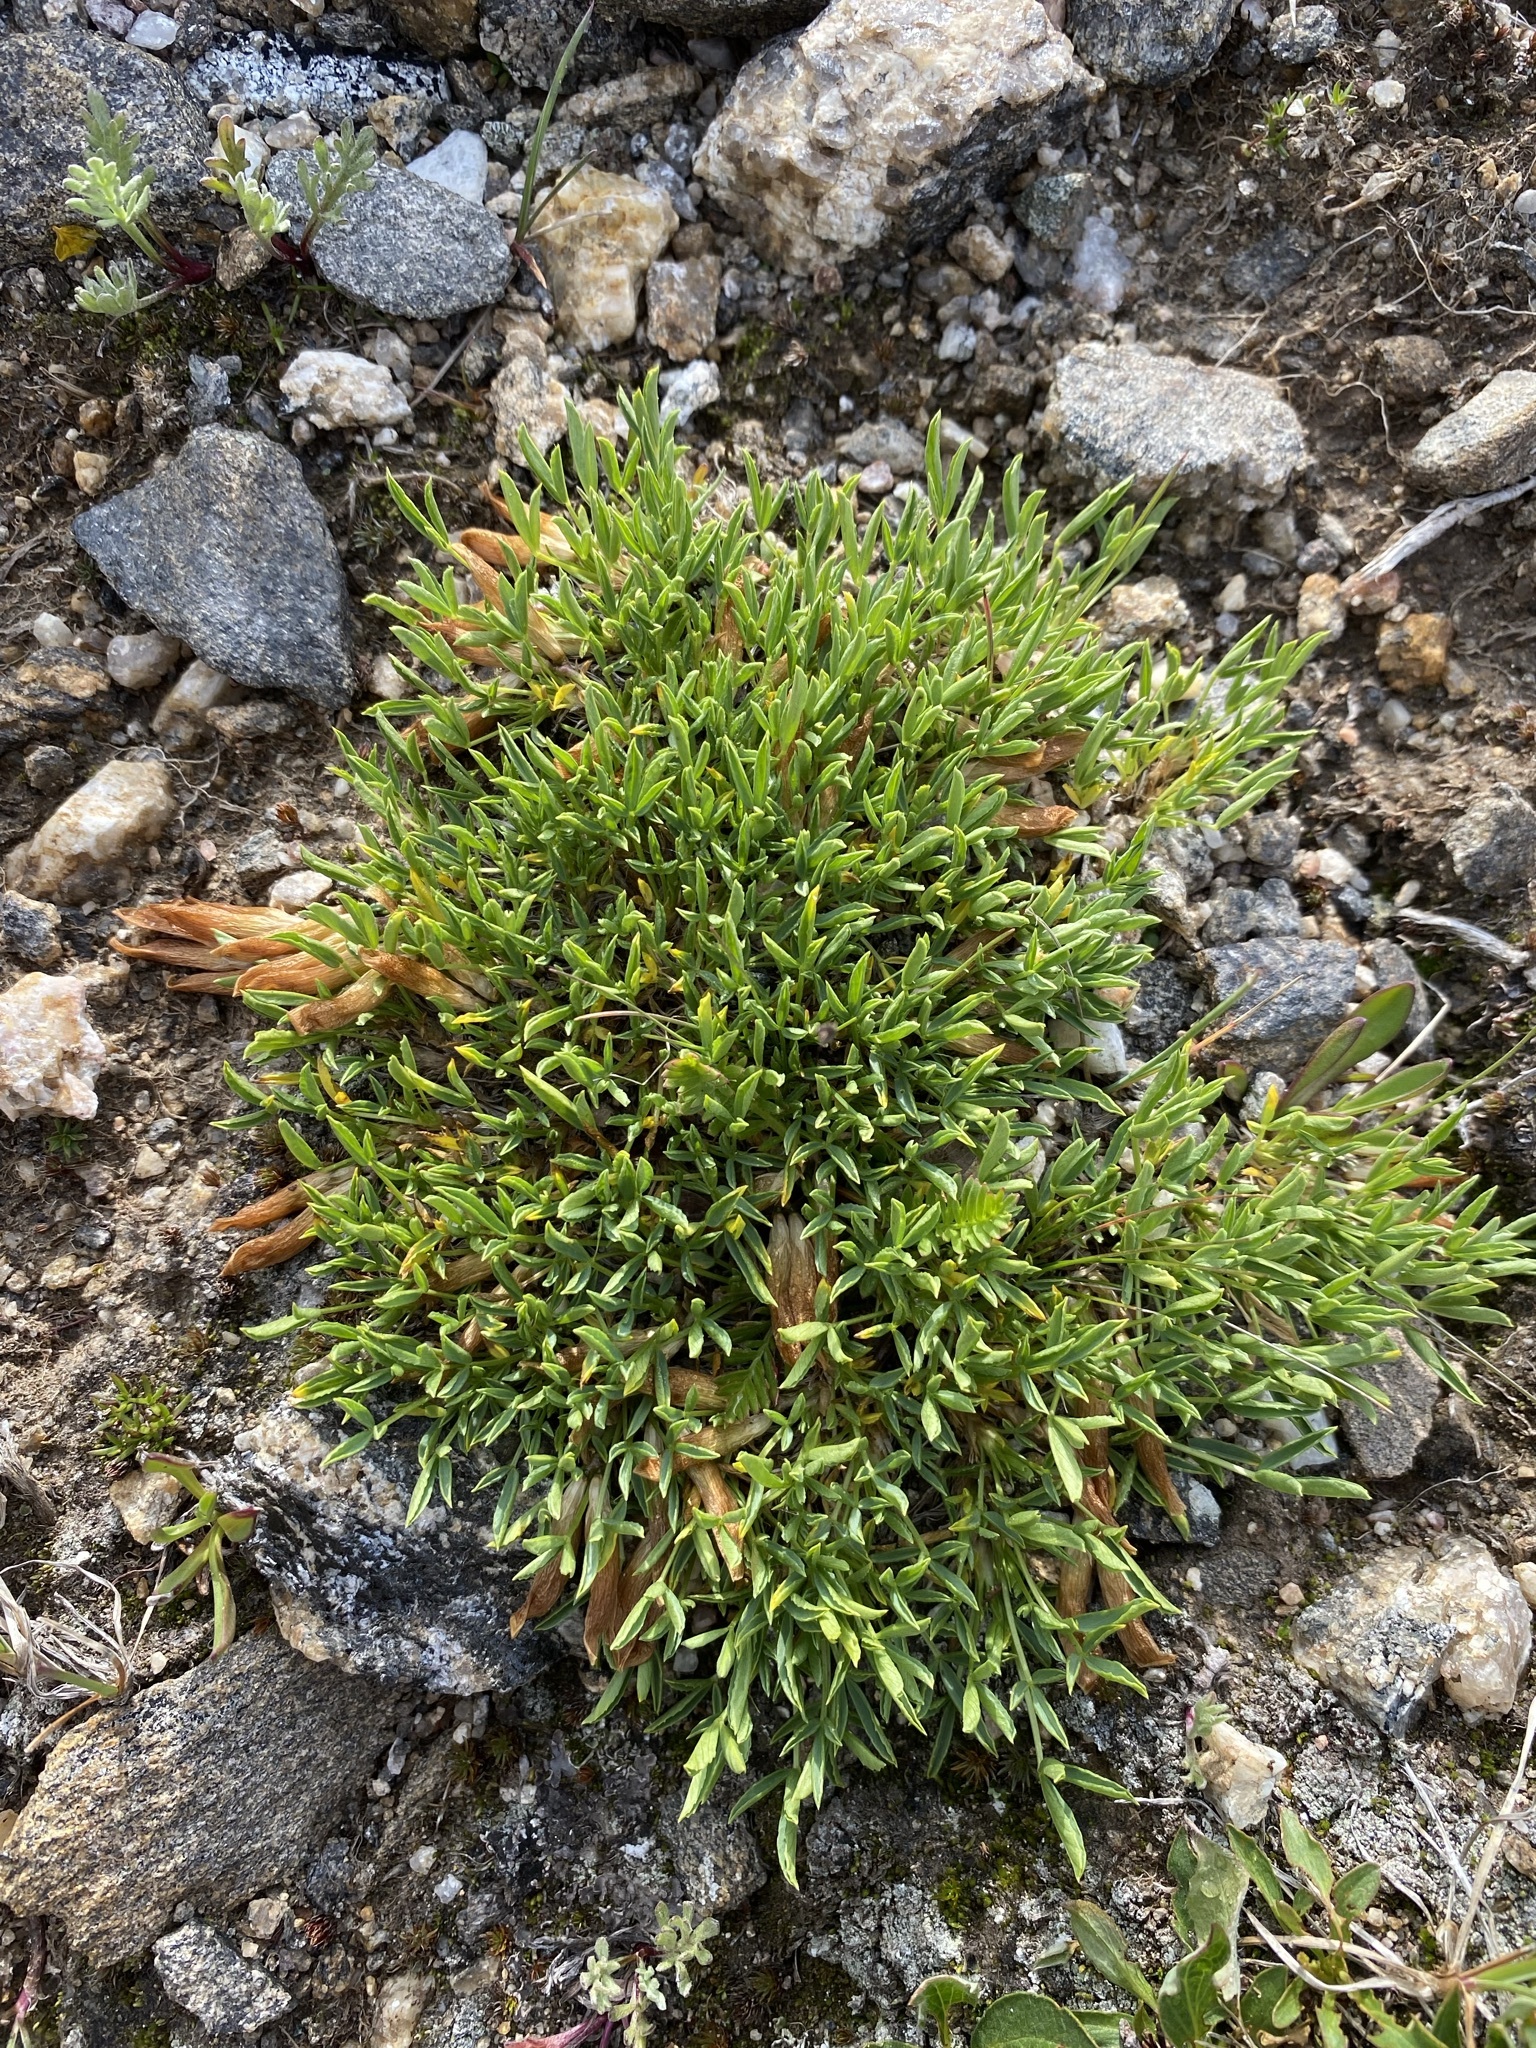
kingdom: Plantae
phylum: Tracheophyta
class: Magnoliopsida
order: Fabales
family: Fabaceae
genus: Trifolium
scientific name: Trifolium nanum
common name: Tundra clover
